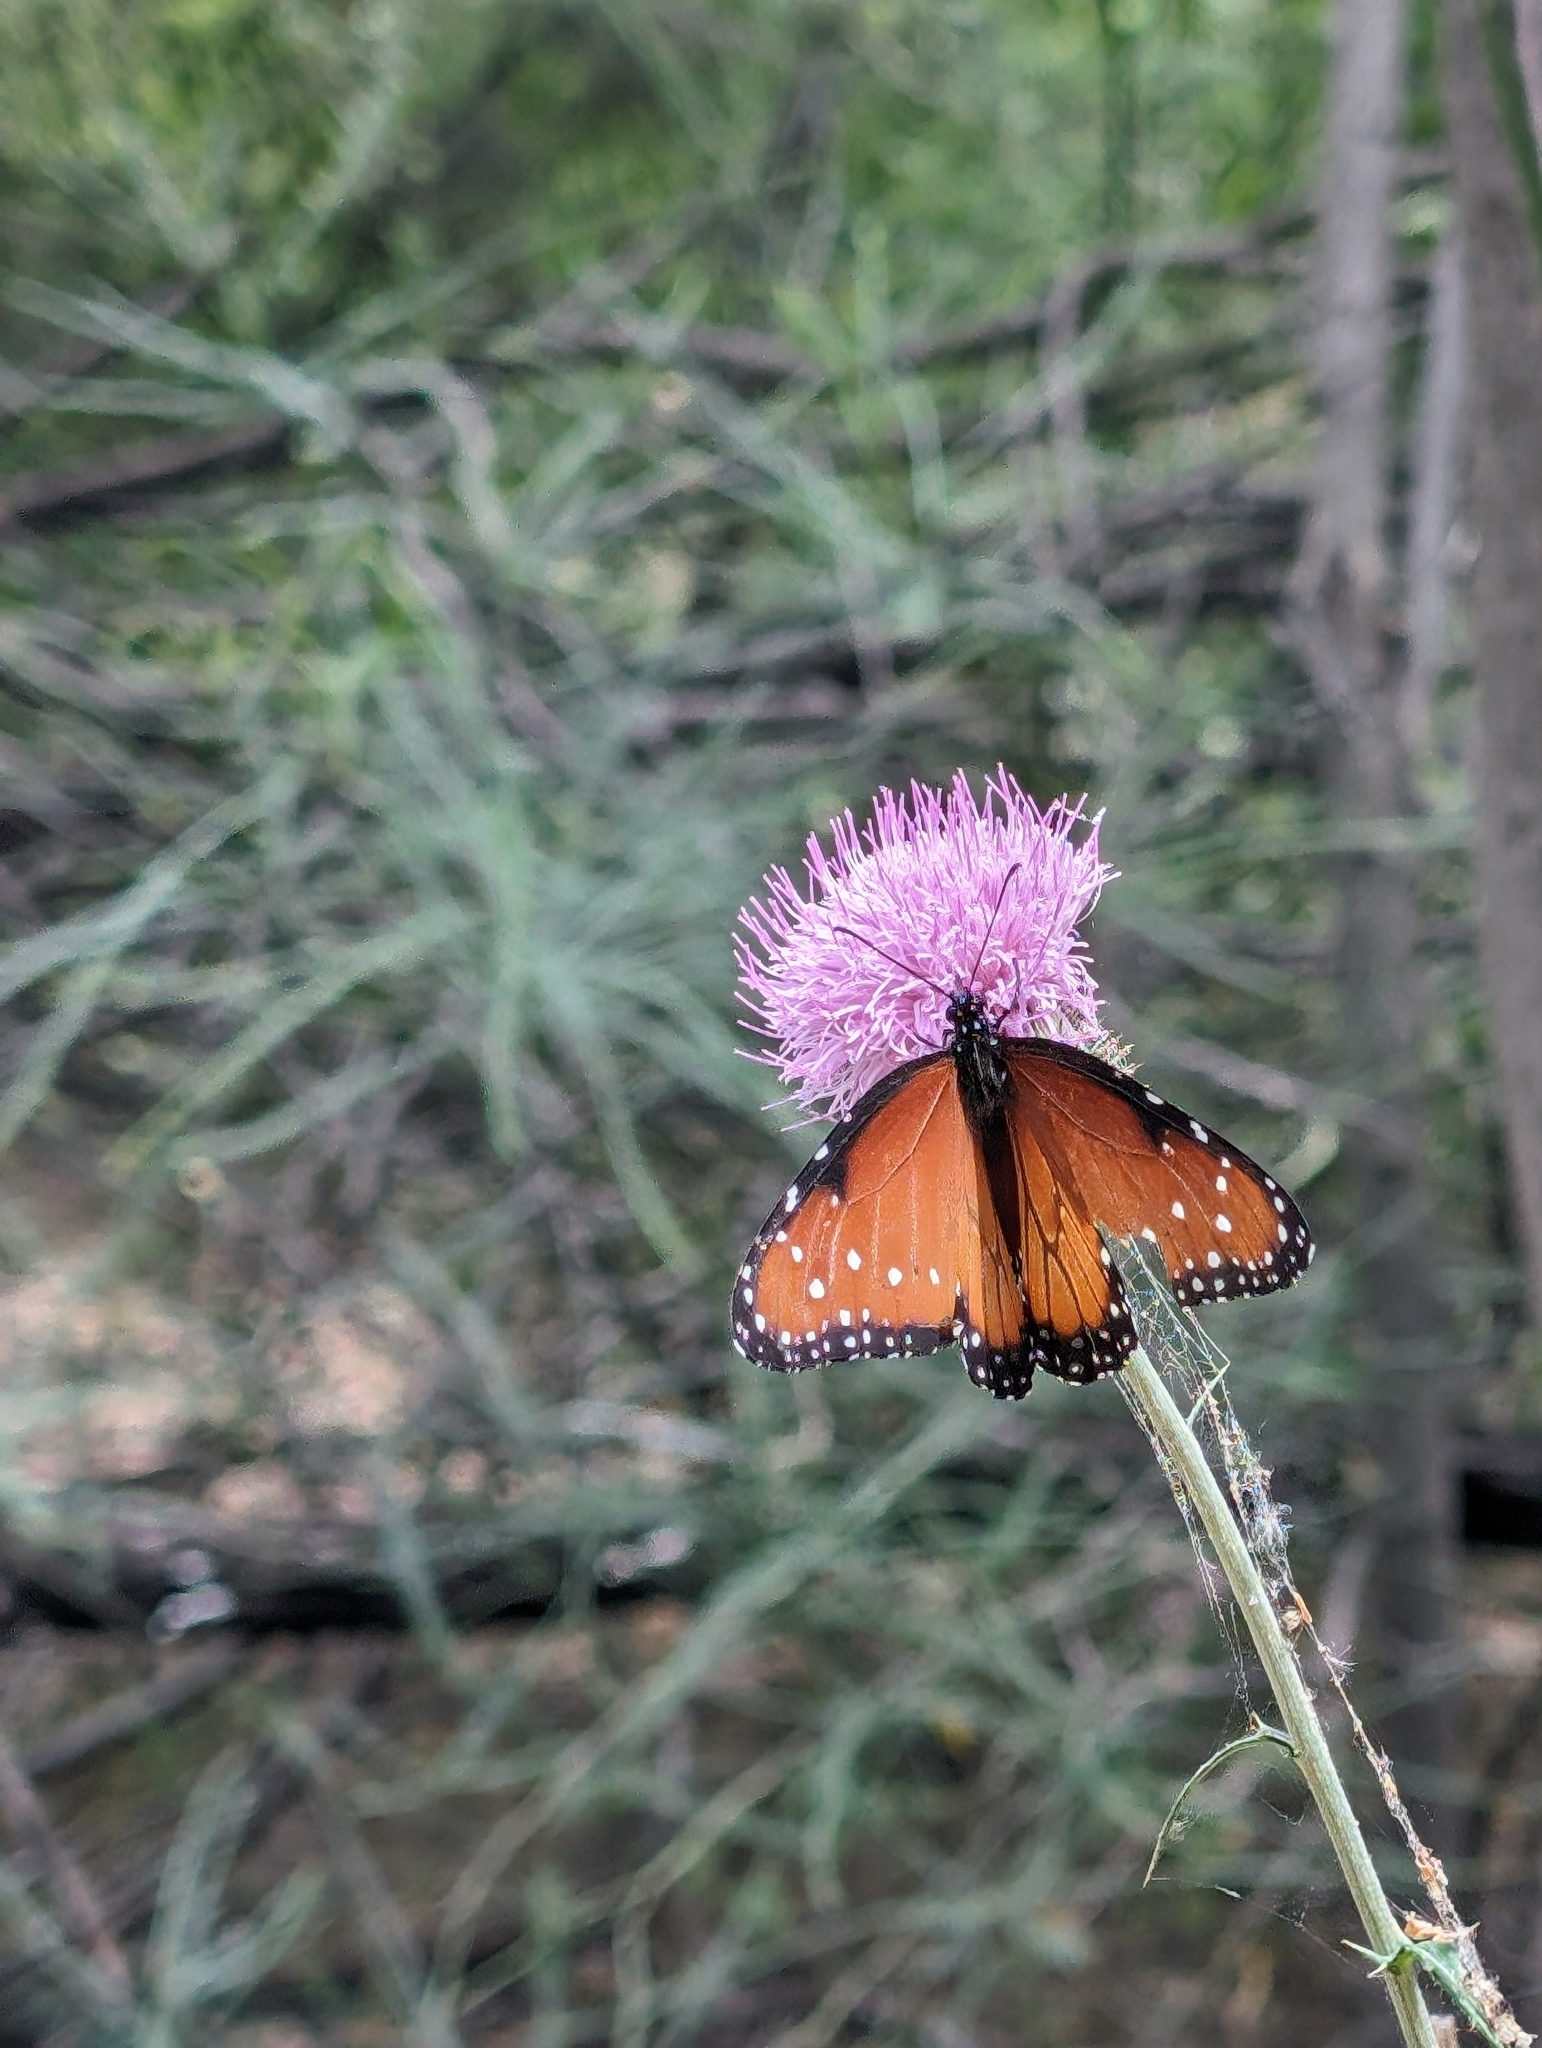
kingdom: Animalia
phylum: Arthropoda
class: Insecta
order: Lepidoptera
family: Nymphalidae
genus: Danaus
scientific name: Danaus gilippus
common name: Queen
